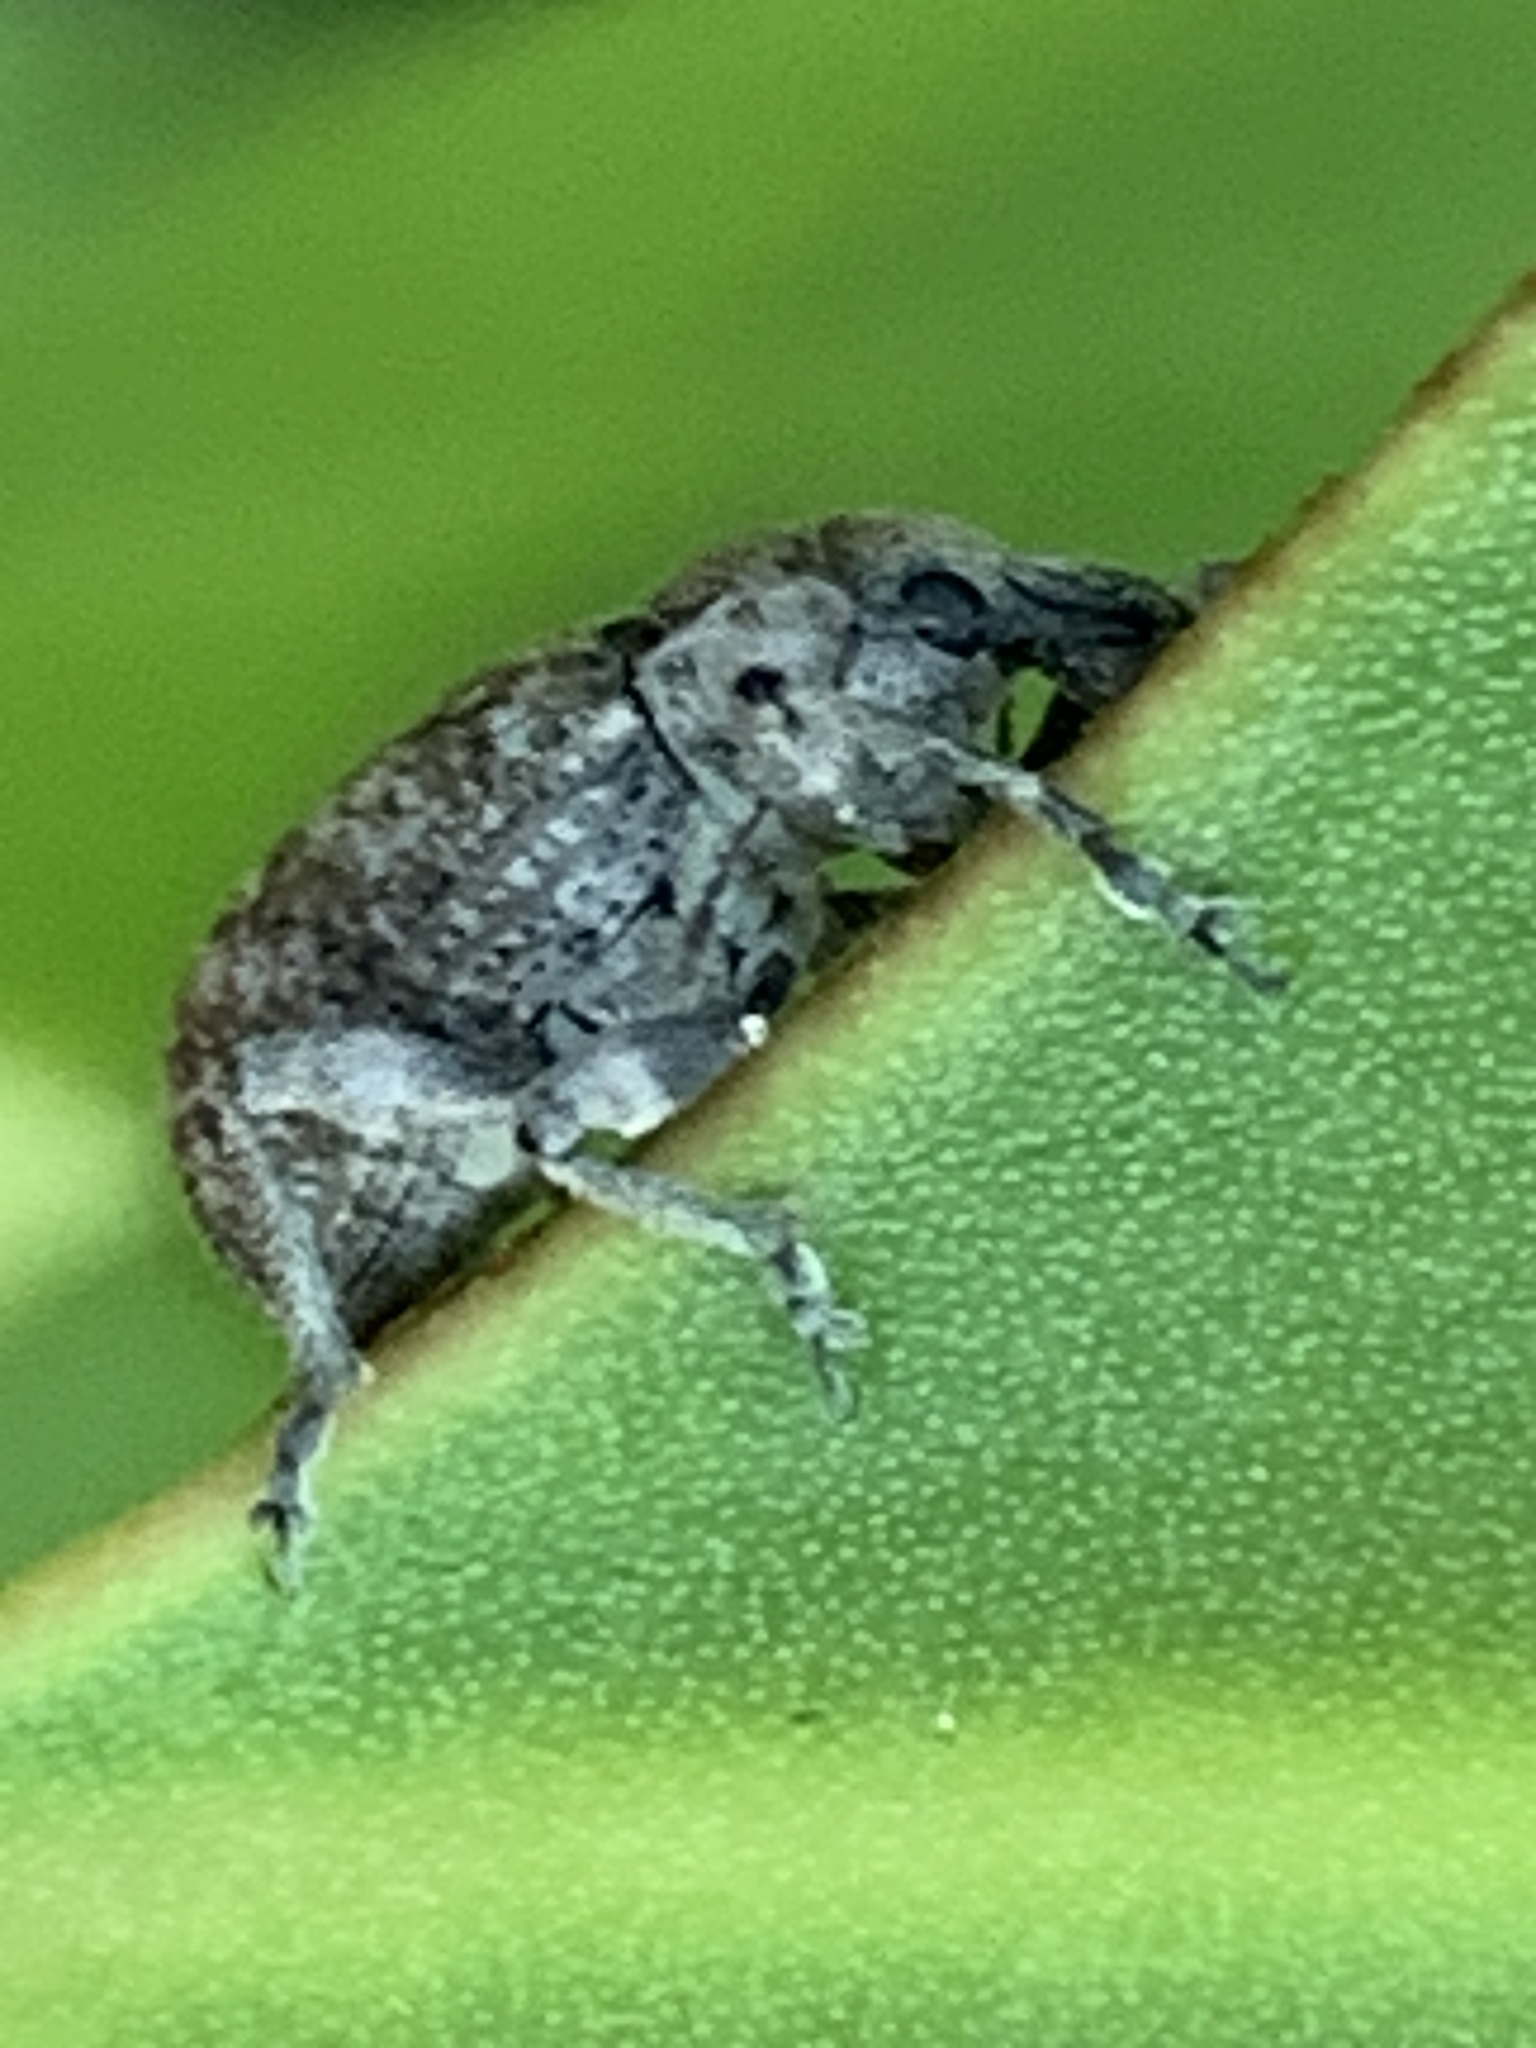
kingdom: Animalia
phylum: Arthropoda
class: Insecta
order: Coleoptera
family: Curculionidae
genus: Phlyctinus
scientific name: Phlyctinus callosus
